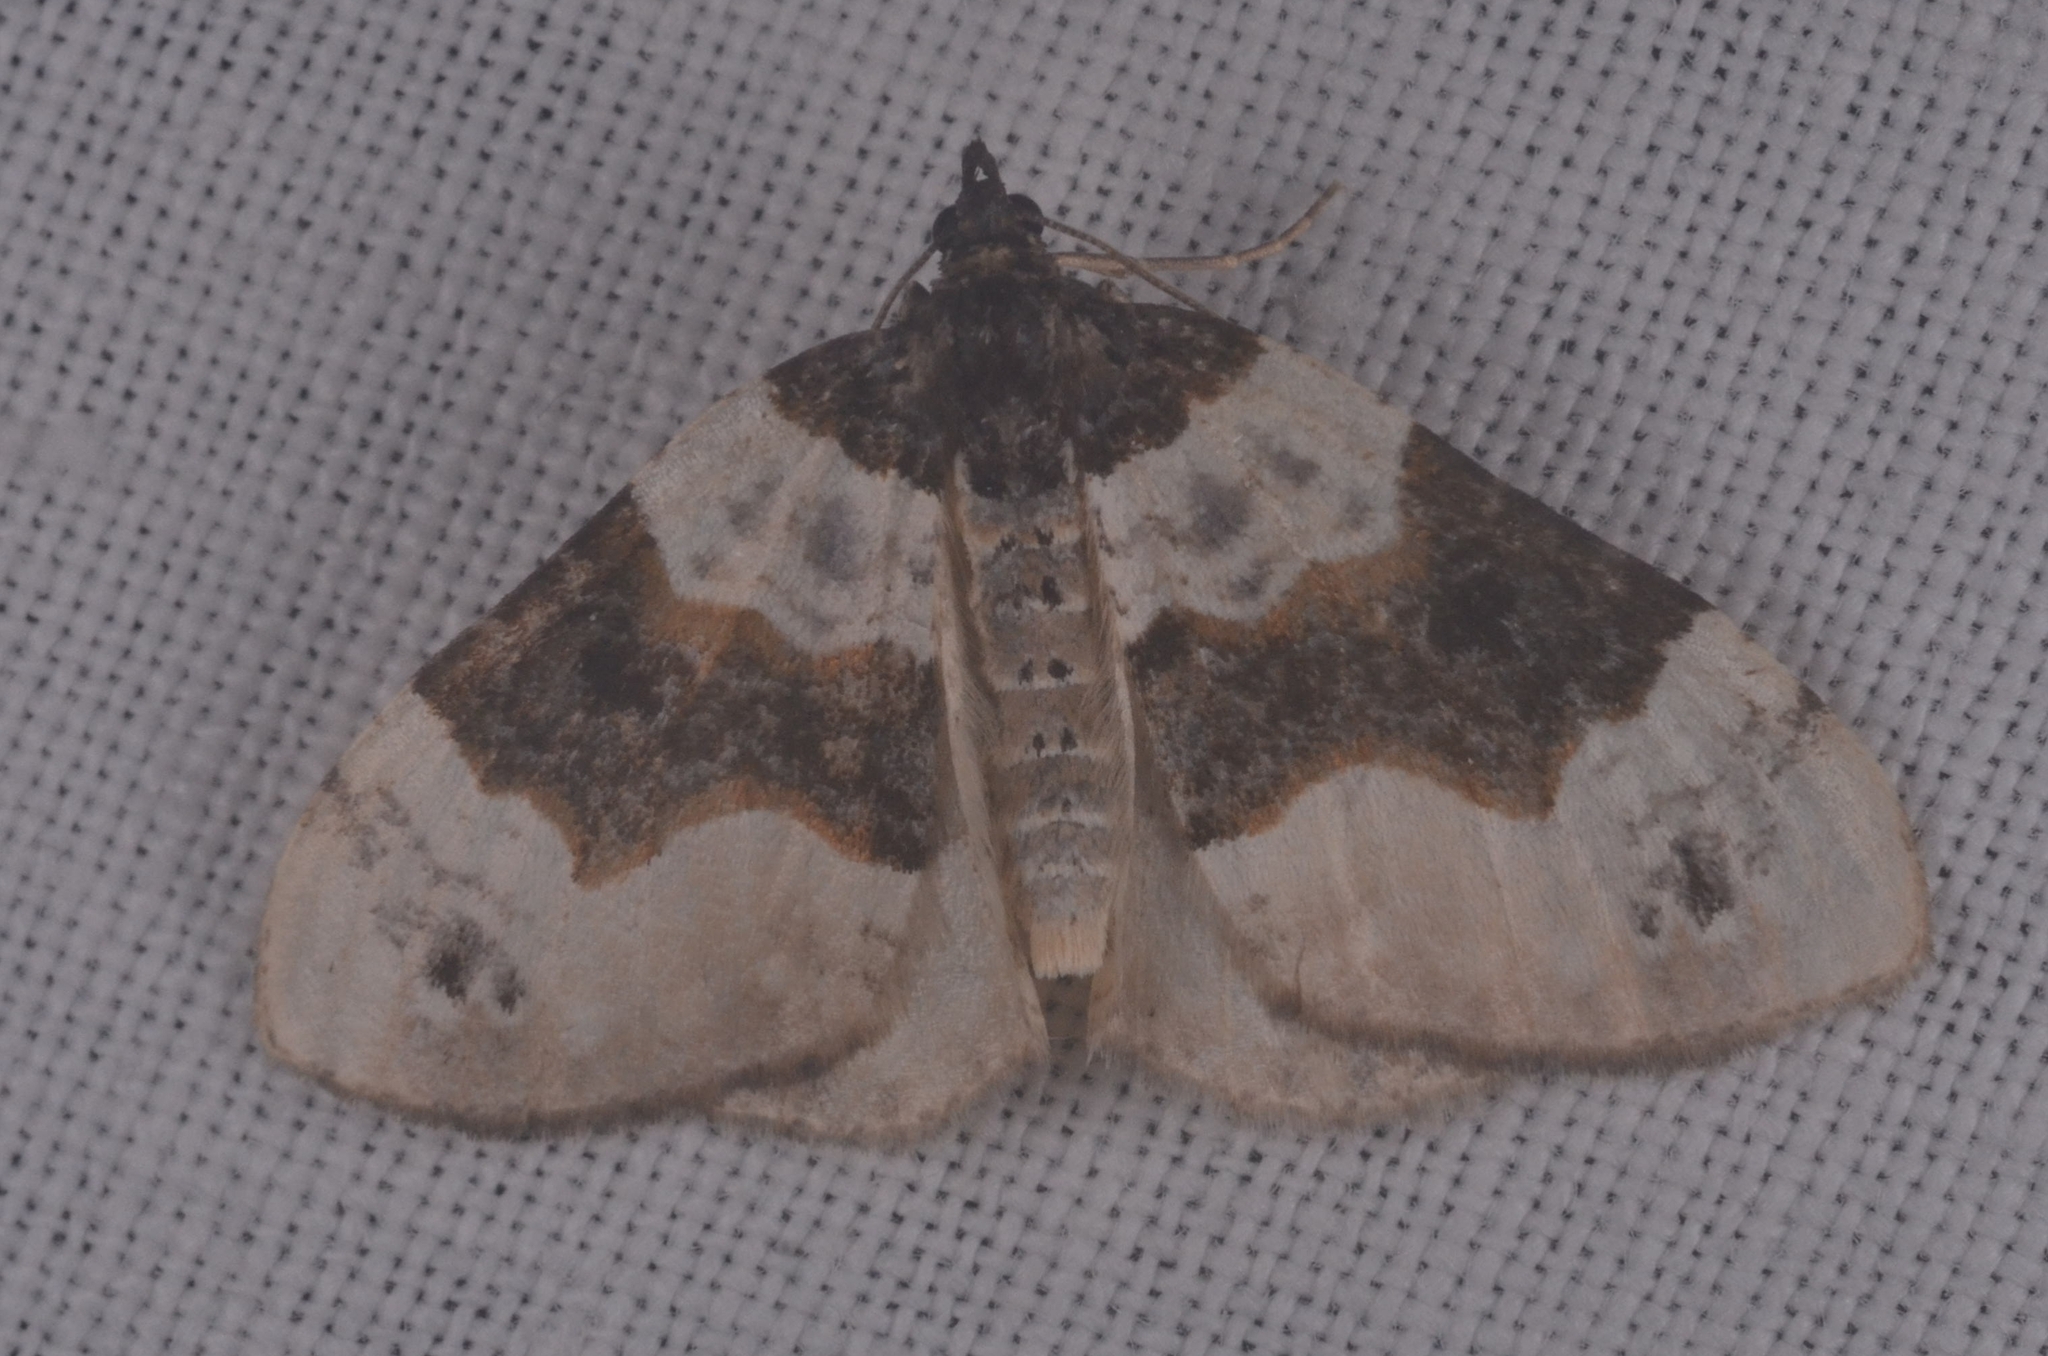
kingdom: Animalia
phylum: Arthropoda
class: Insecta
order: Lepidoptera
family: Geometridae
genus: Cosmorhoe
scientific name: Cosmorhoe ocellata
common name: Purple bar
